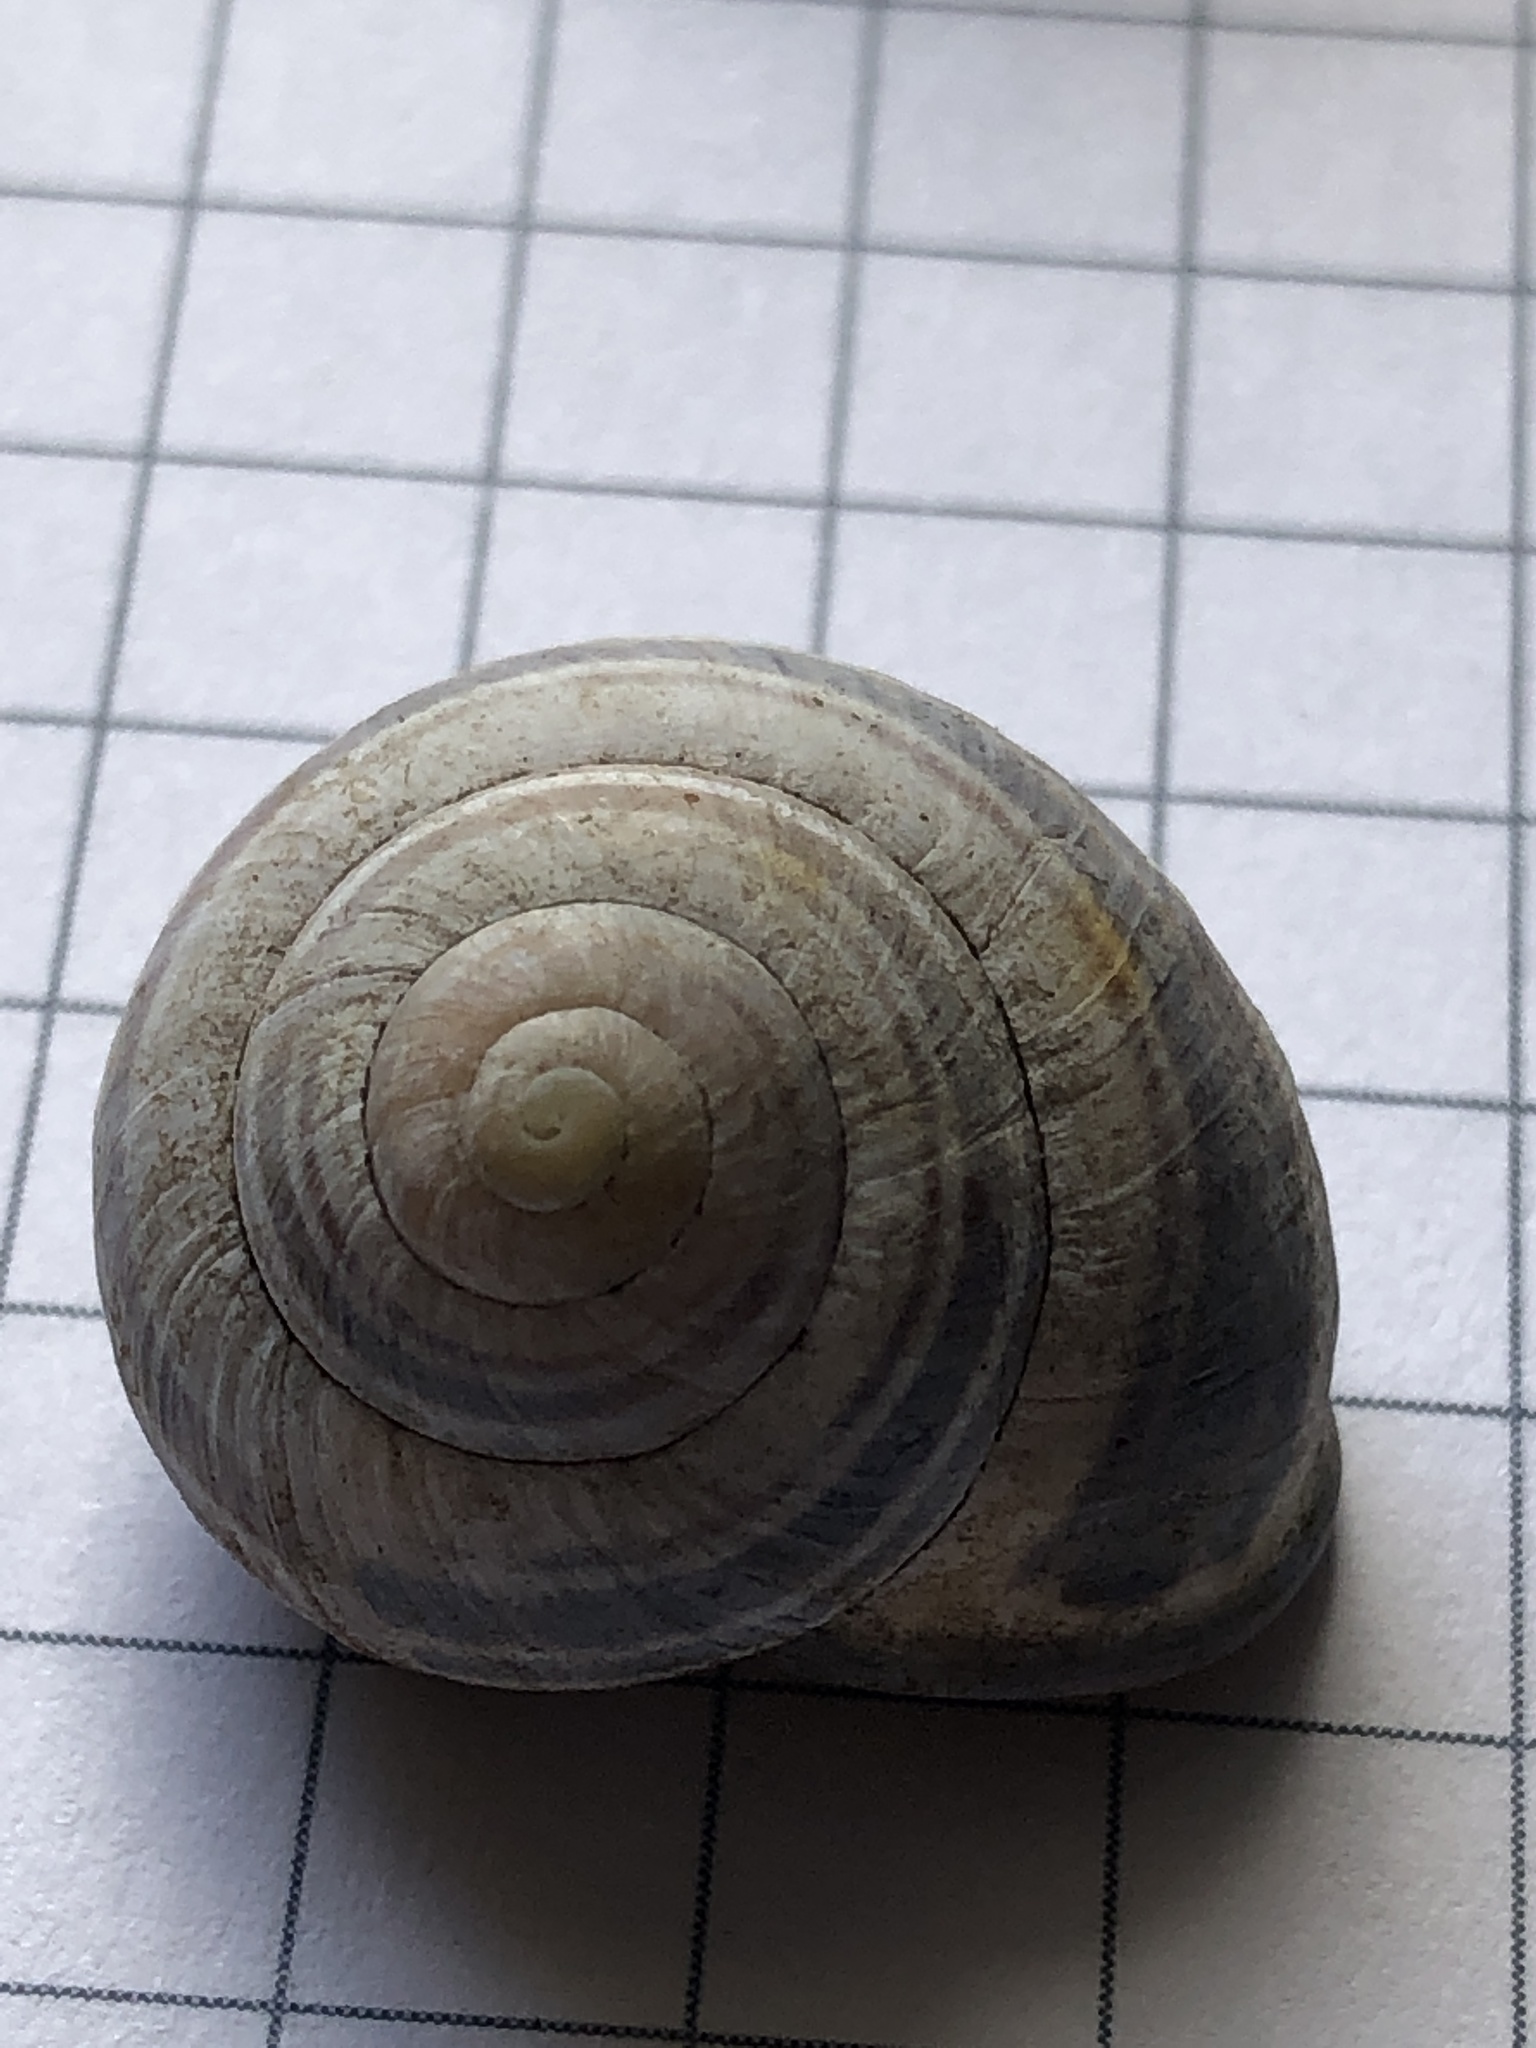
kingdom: Animalia
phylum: Mollusca
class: Gastropoda
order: Stylommatophora
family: Helicidae
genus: Cepaea
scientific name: Cepaea nemoralis
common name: Grovesnail
